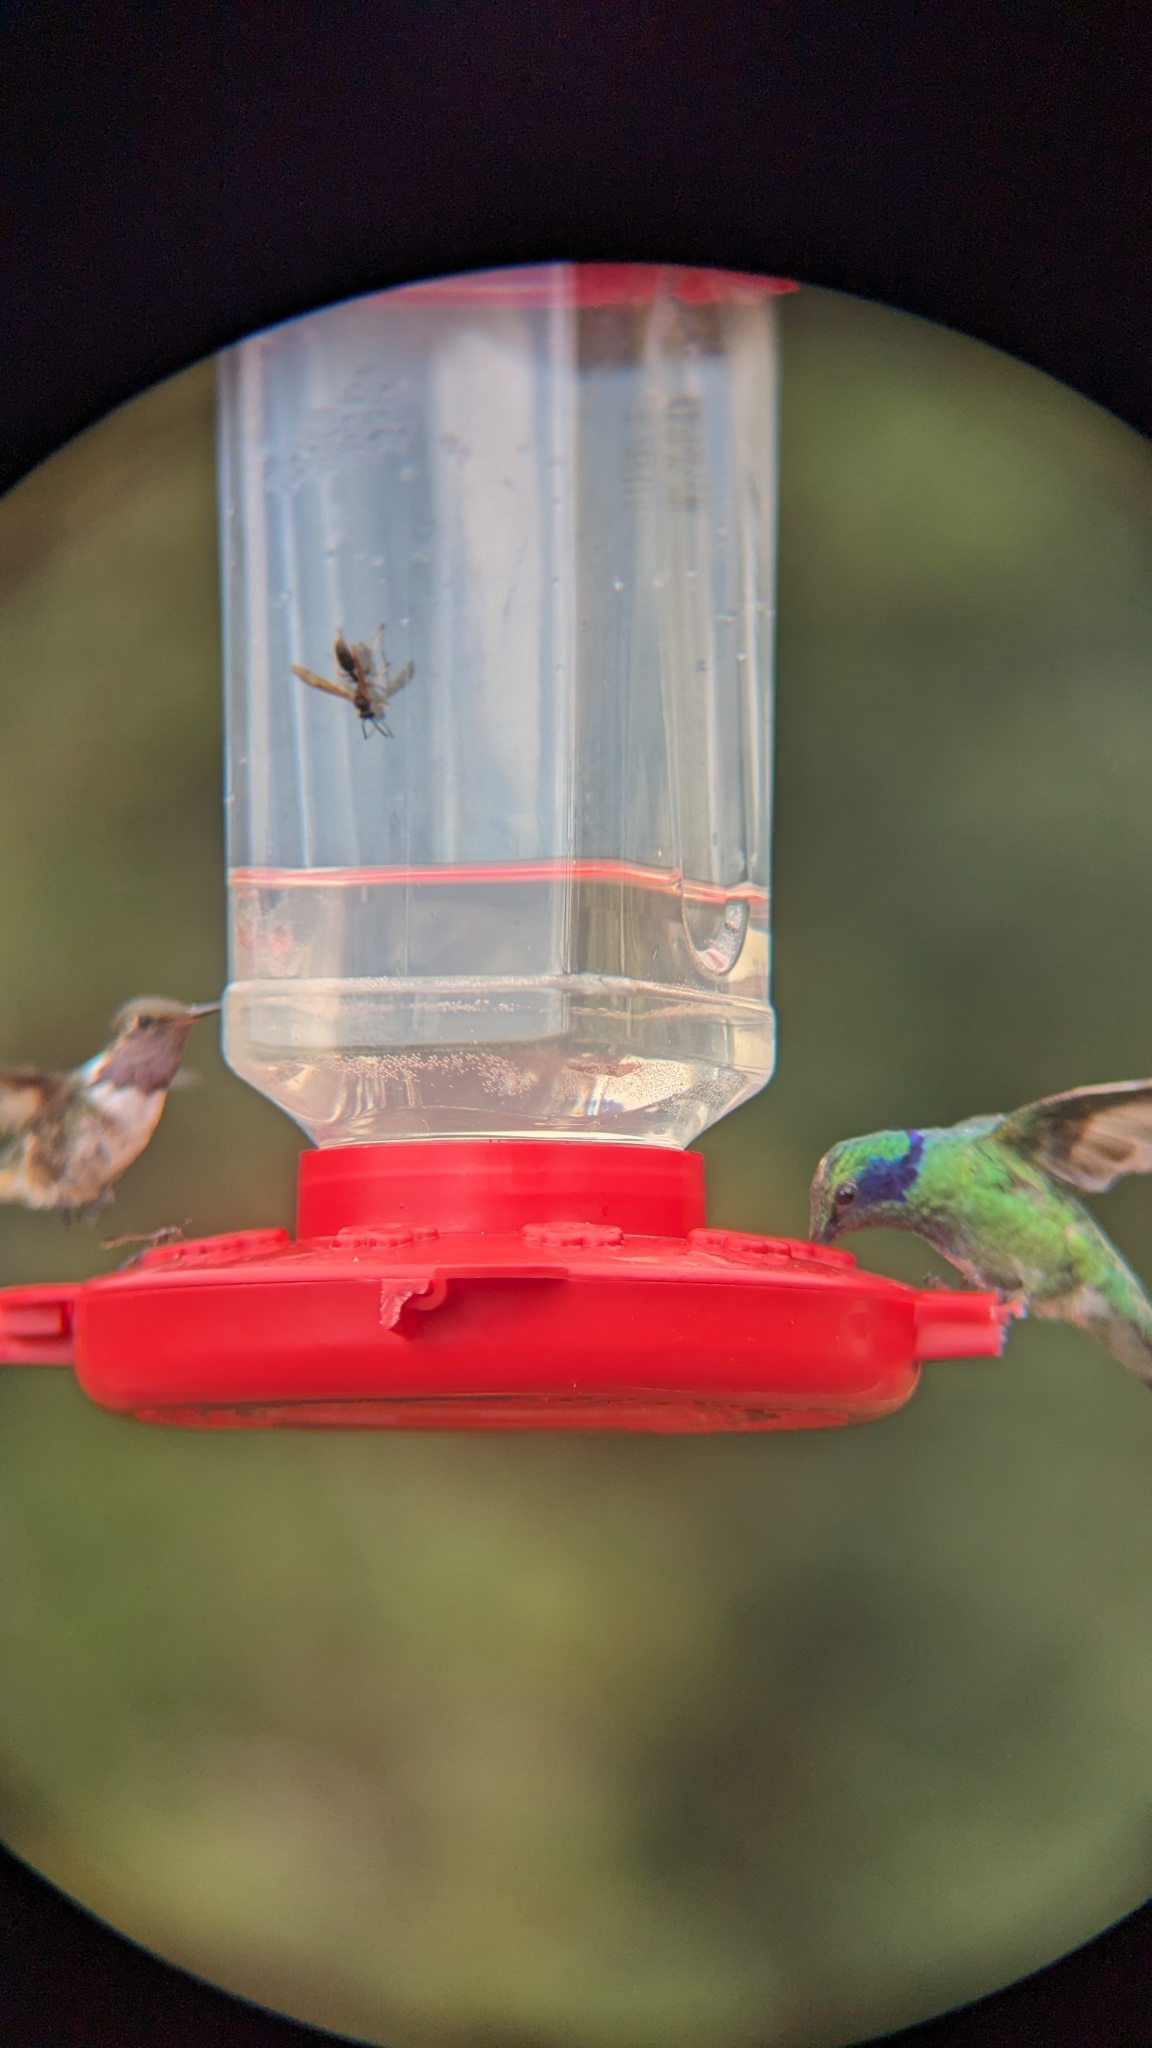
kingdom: Animalia
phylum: Chordata
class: Aves
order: Apodiformes
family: Trochilidae
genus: Colibri
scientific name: Colibri cyanotus
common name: Lesser violetear
